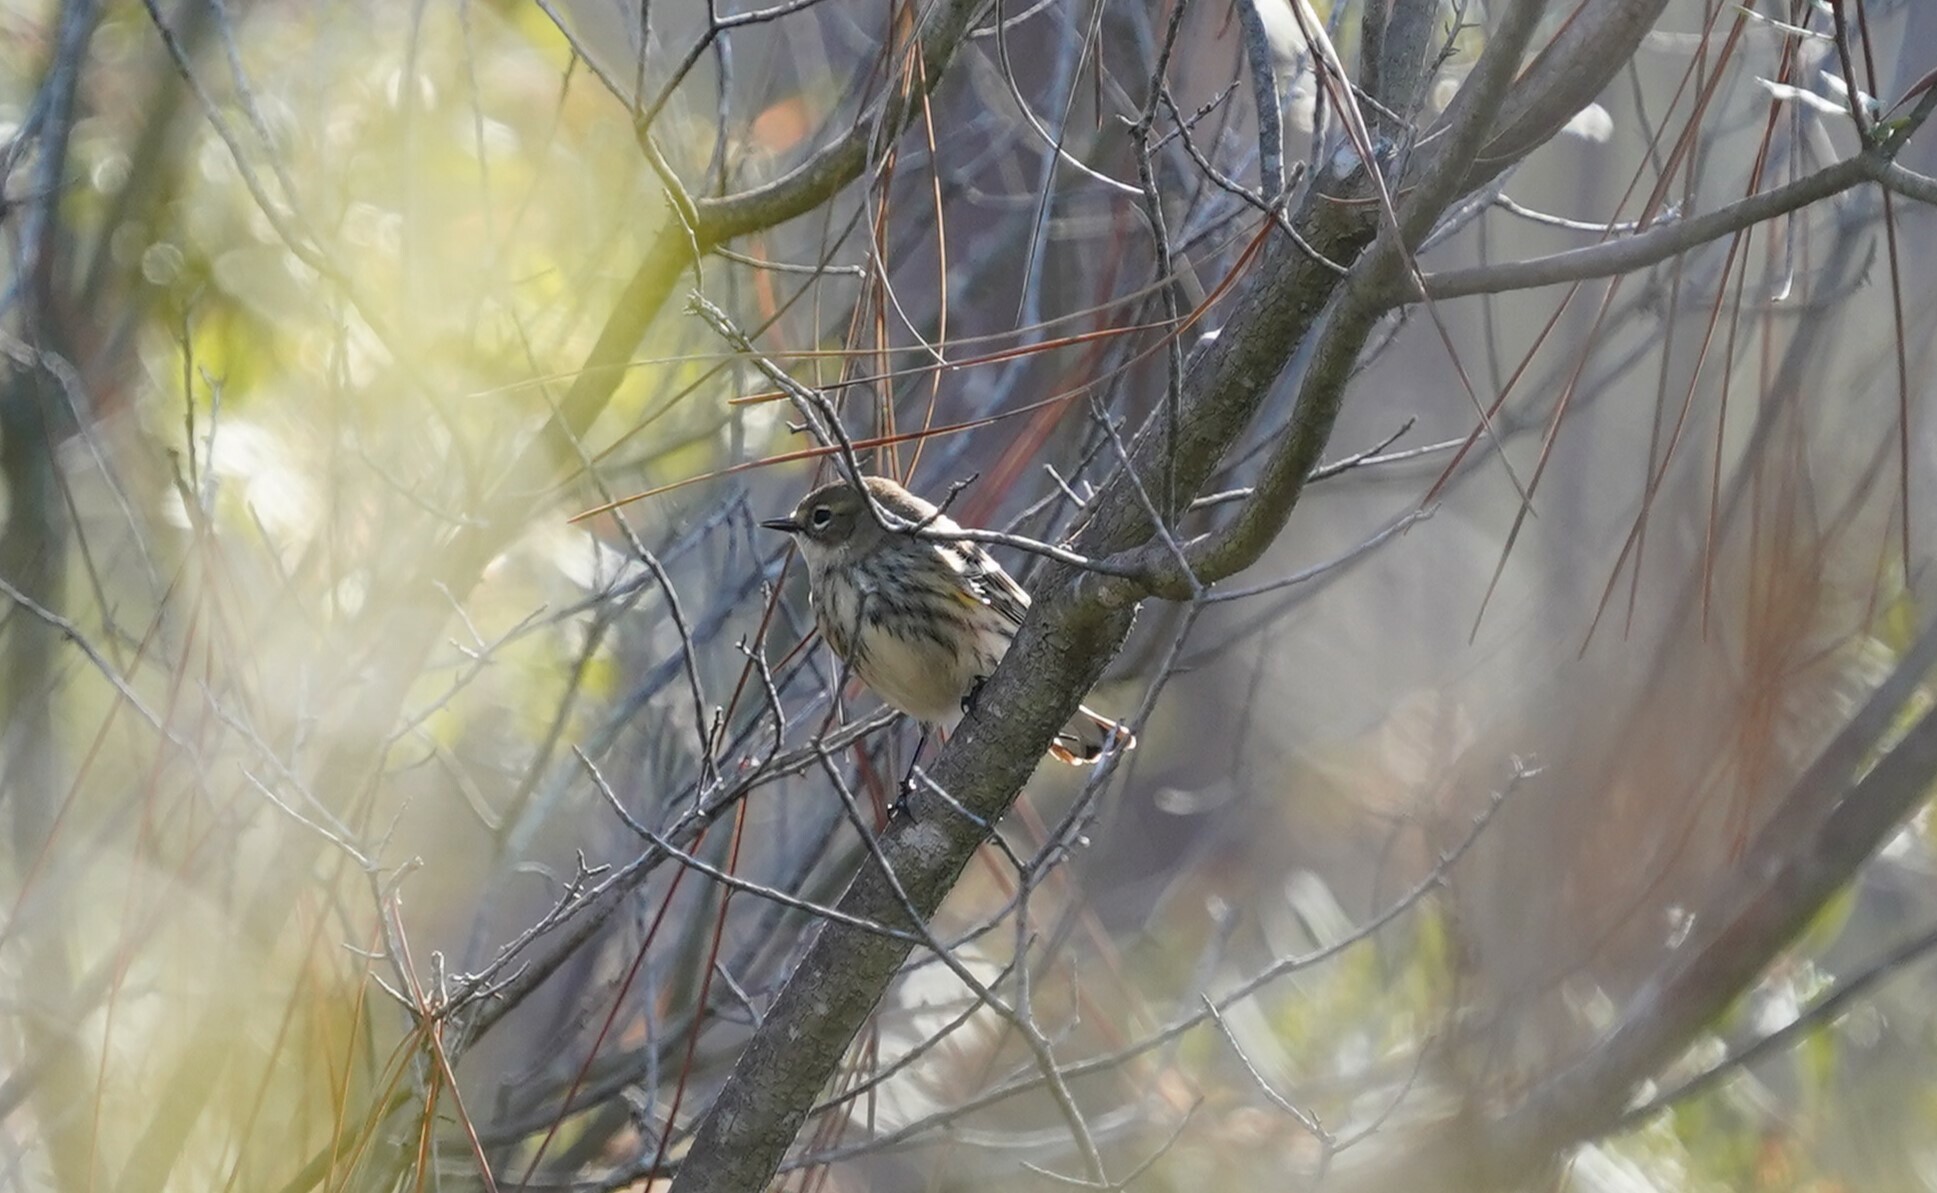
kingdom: Animalia
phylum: Chordata
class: Aves
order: Passeriformes
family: Parulidae
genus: Setophaga
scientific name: Setophaga coronata
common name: Myrtle warbler
